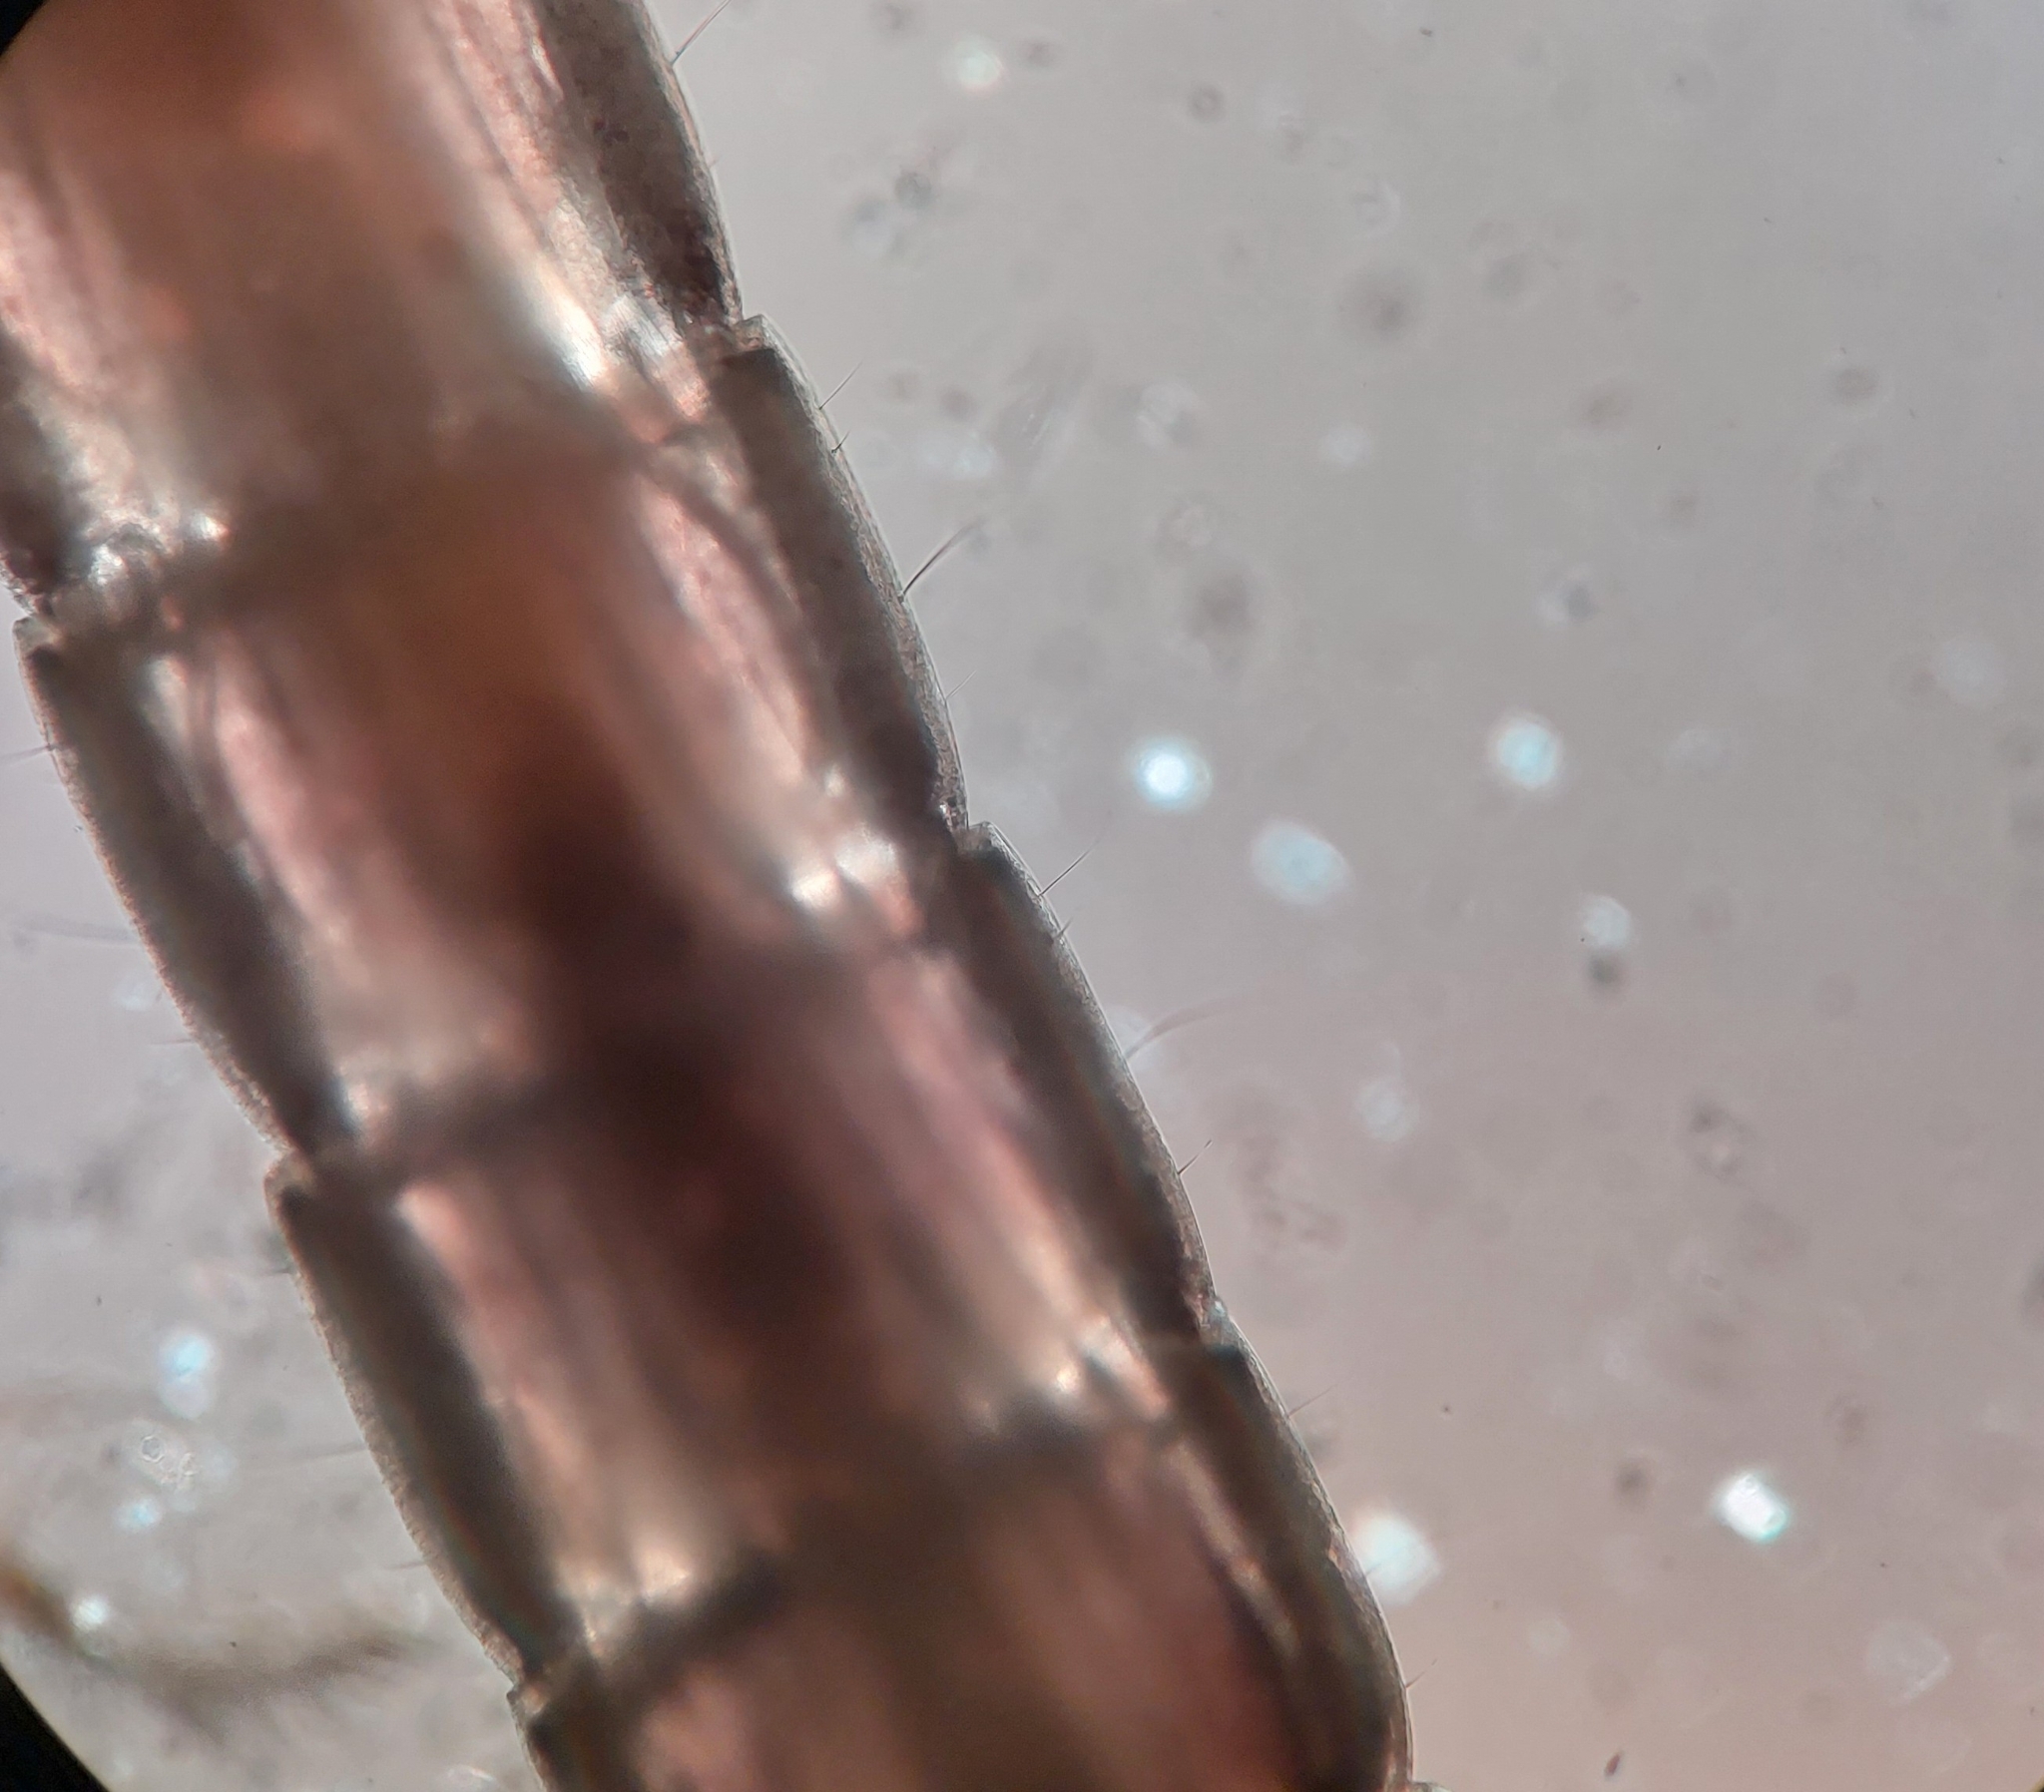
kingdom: Animalia
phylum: Arthropoda
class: Insecta
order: Diptera
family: Chironomidae
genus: Metriocnemus
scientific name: Metriocnemus carmencitabertarum
